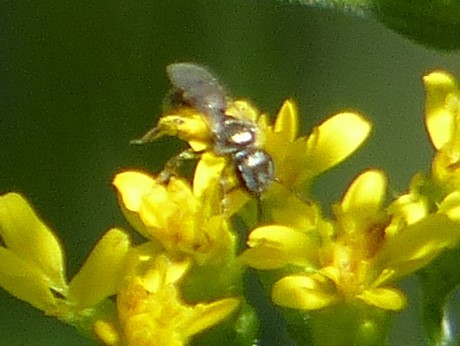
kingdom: Animalia
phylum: Arthropoda
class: Insecta
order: Hymenoptera
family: Halictidae
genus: Dialictus
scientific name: Dialictus
